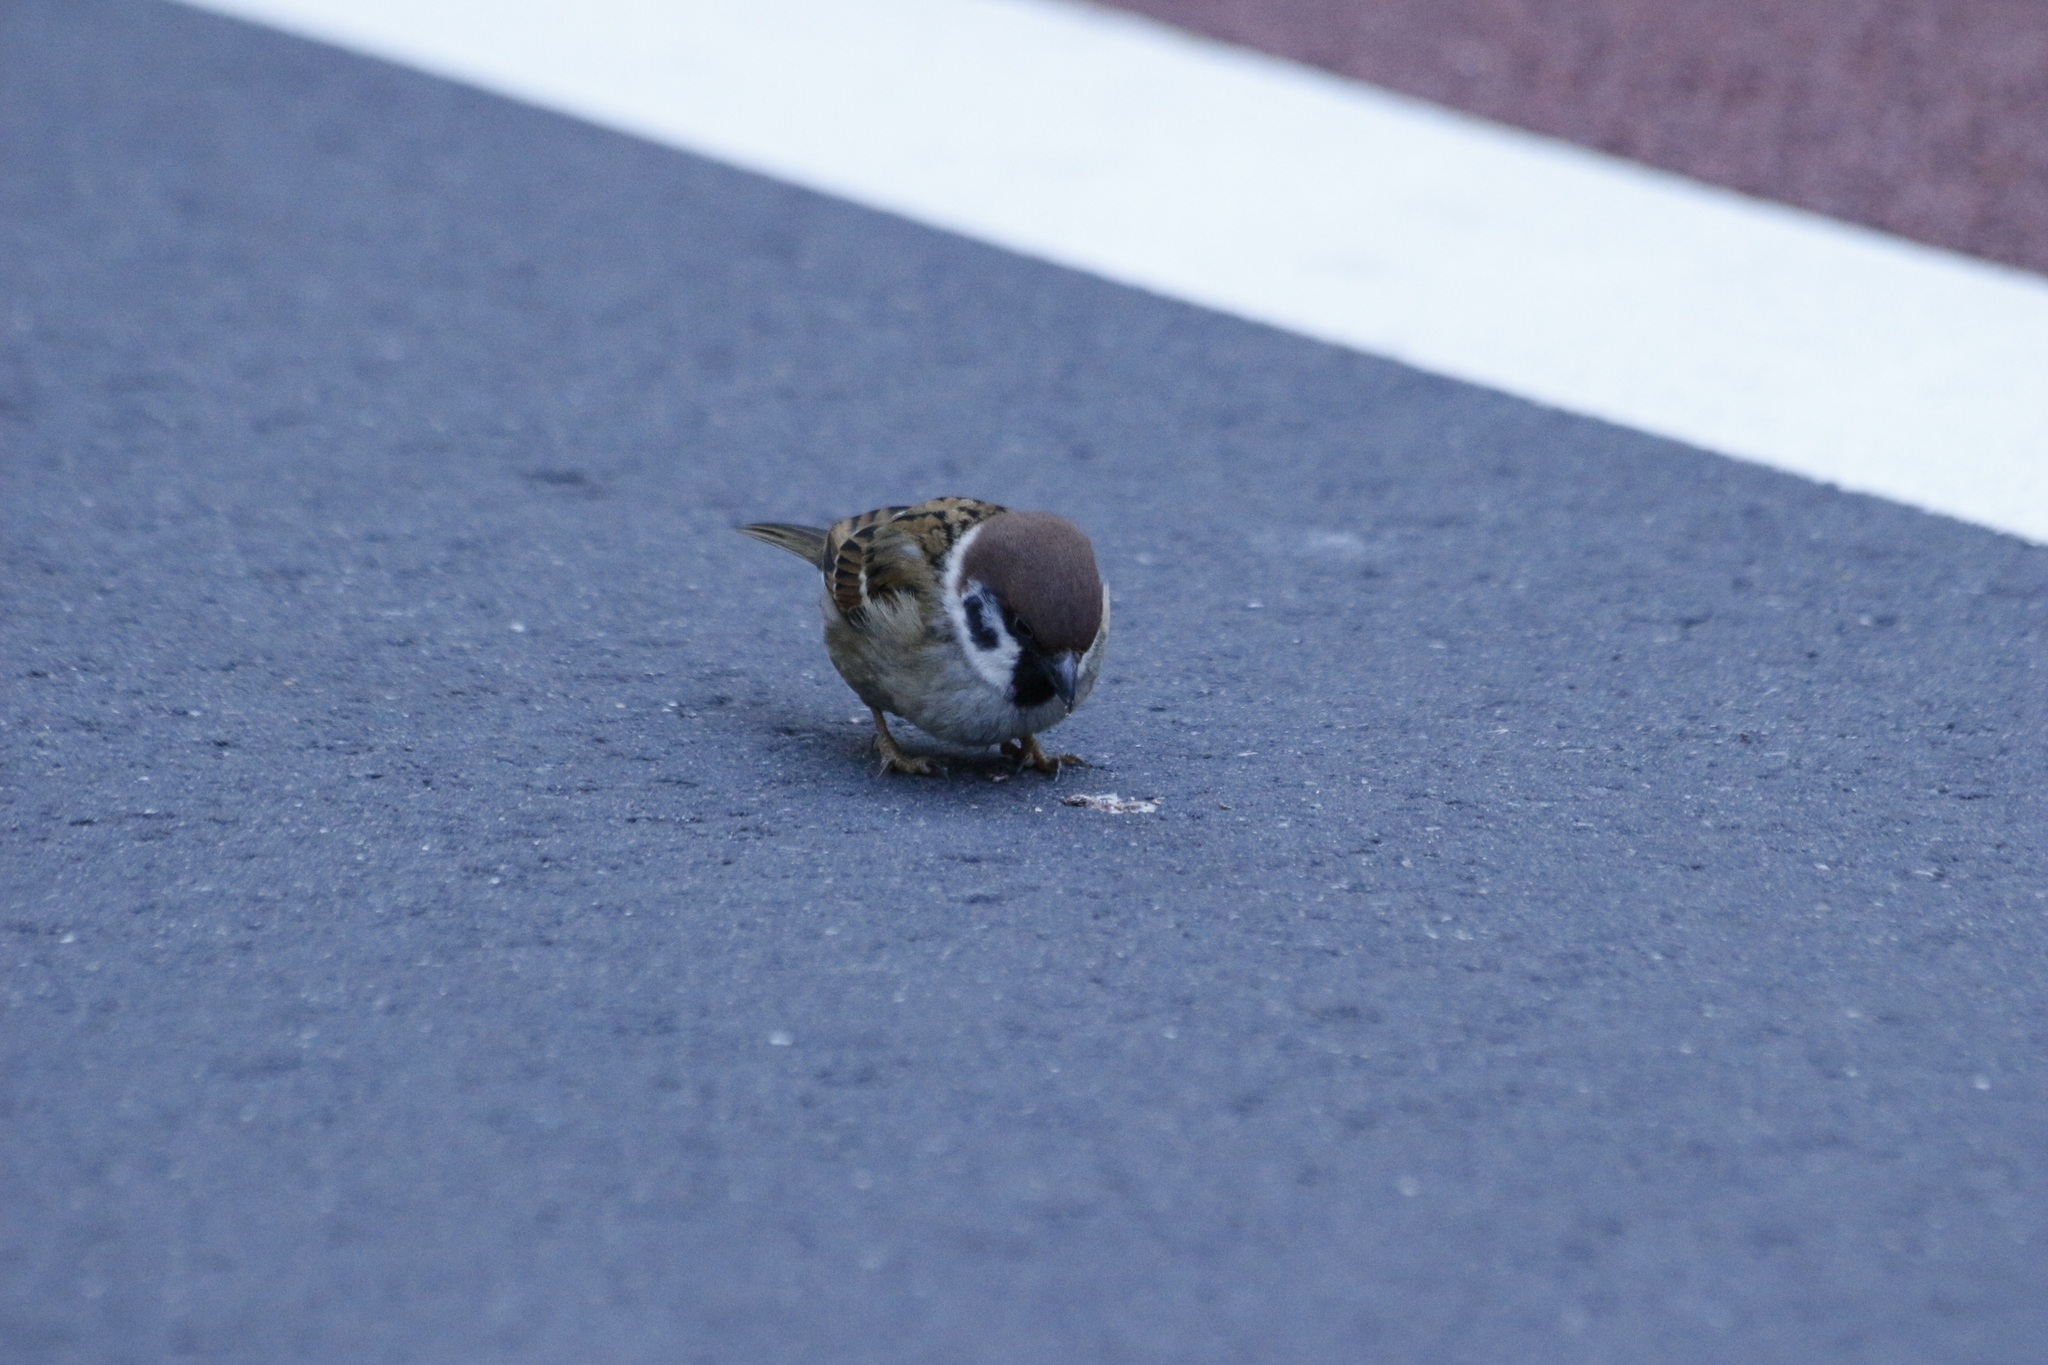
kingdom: Animalia
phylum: Chordata
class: Aves
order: Passeriformes
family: Passeridae
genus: Passer
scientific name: Passer montanus
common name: Eurasian tree sparrow
